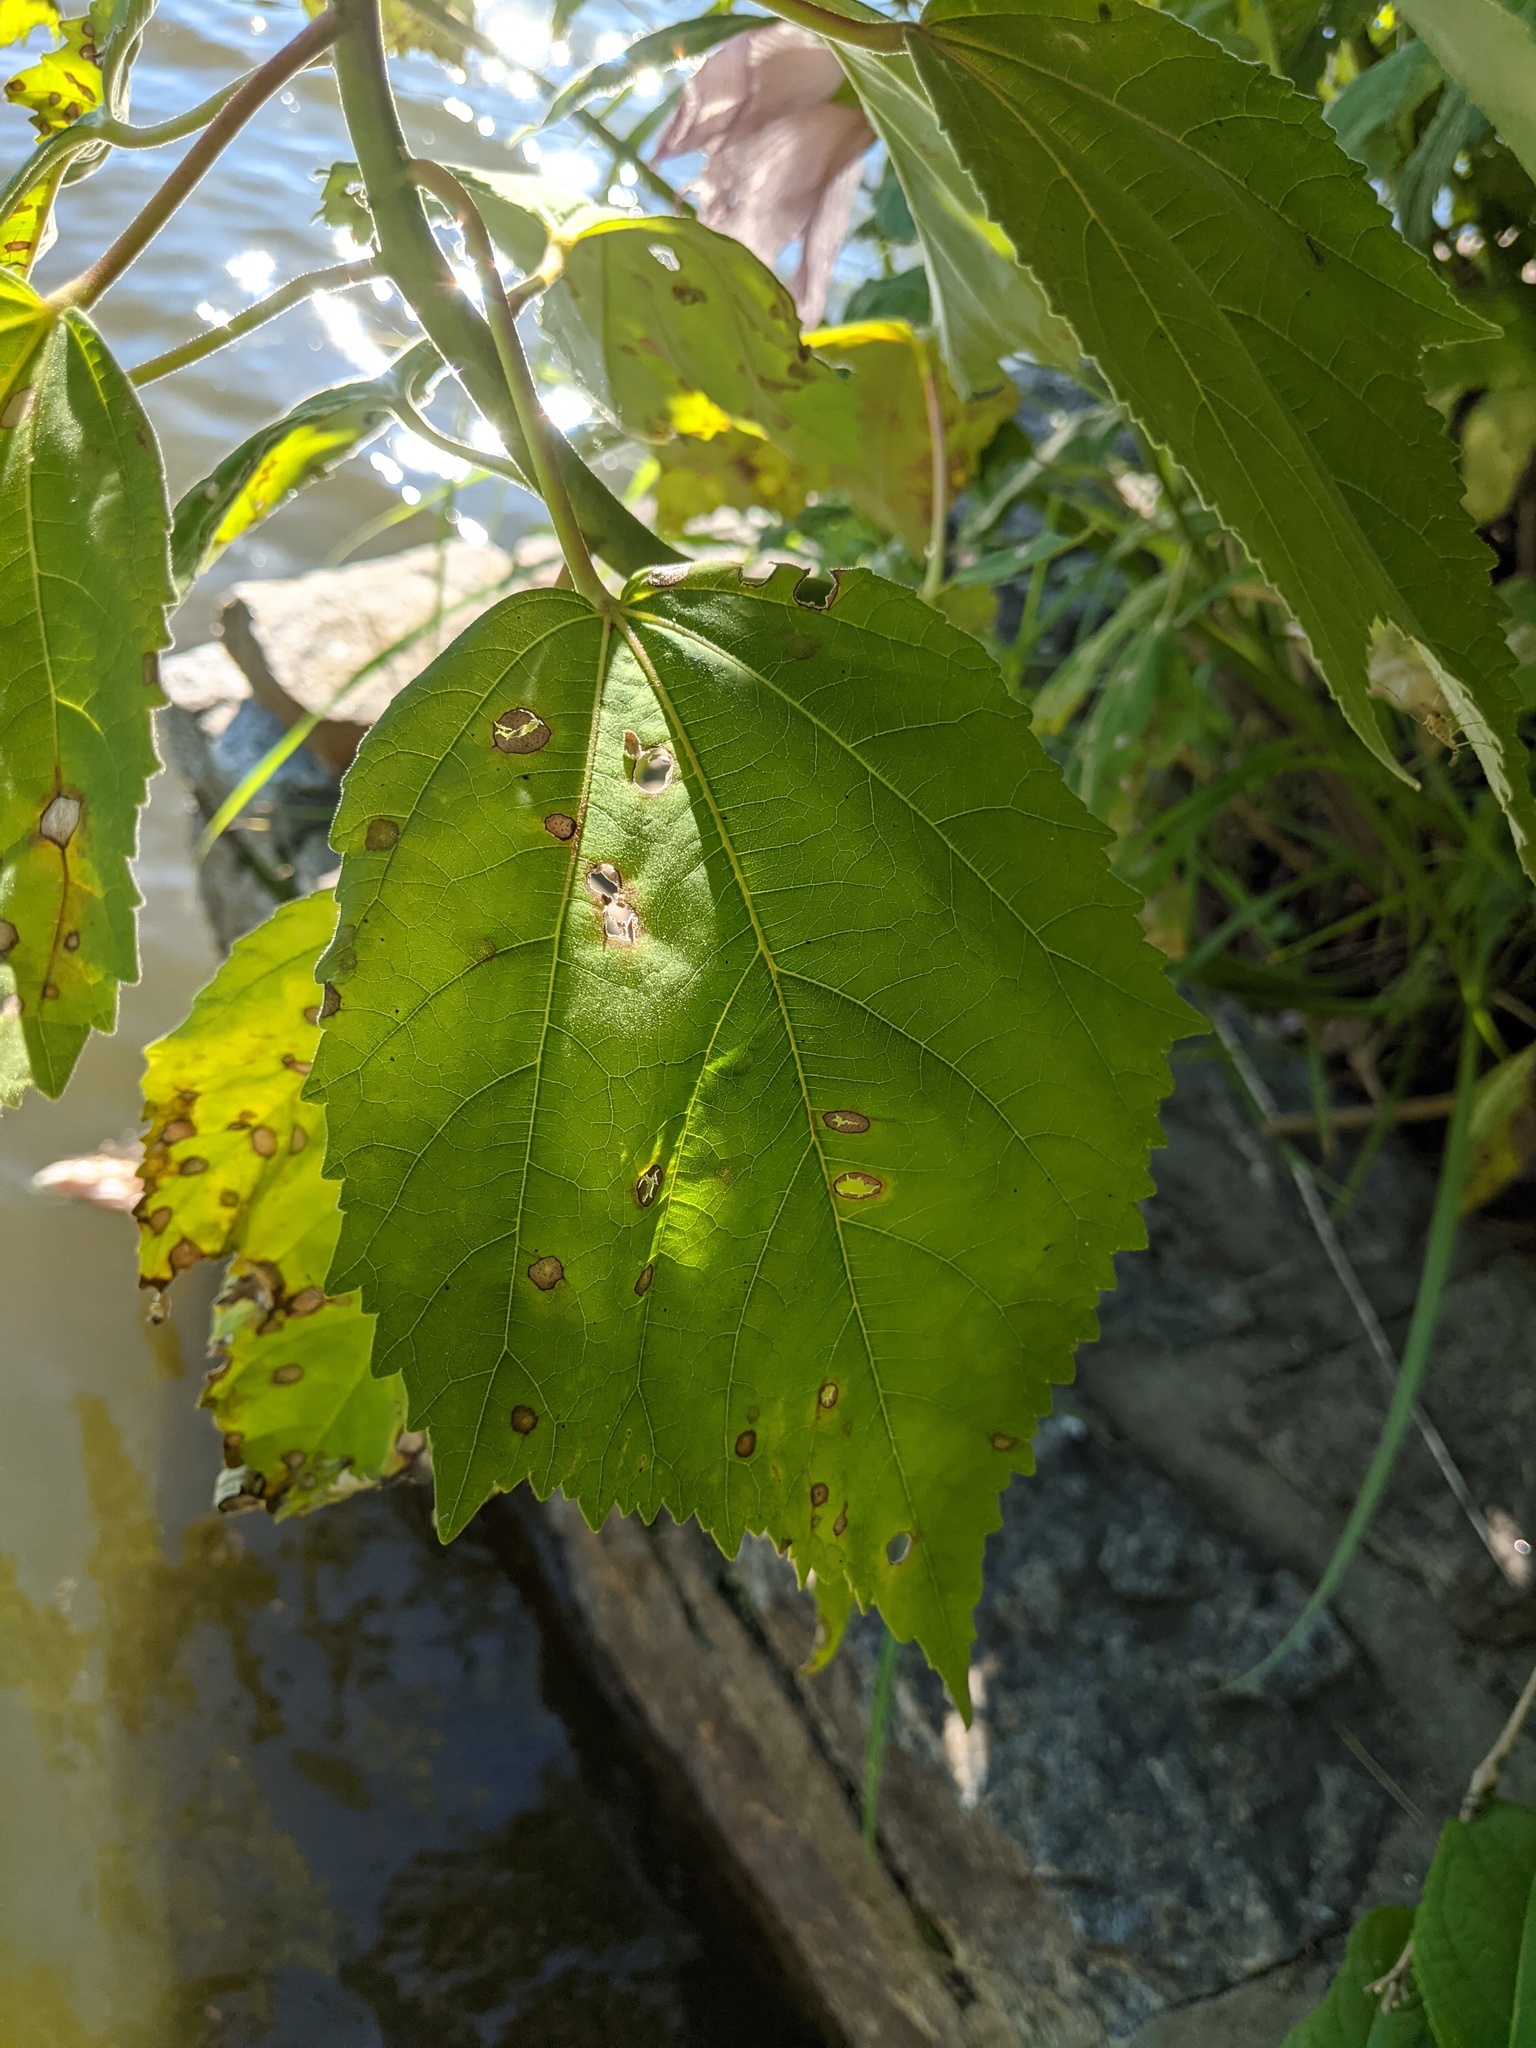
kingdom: Plantae
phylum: Tracheophyta
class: Magnoliopsida
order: Malvales
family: Malvaceae
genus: Hibiscus
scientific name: Hibiscus moscheutos
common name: Common rose-mallow
